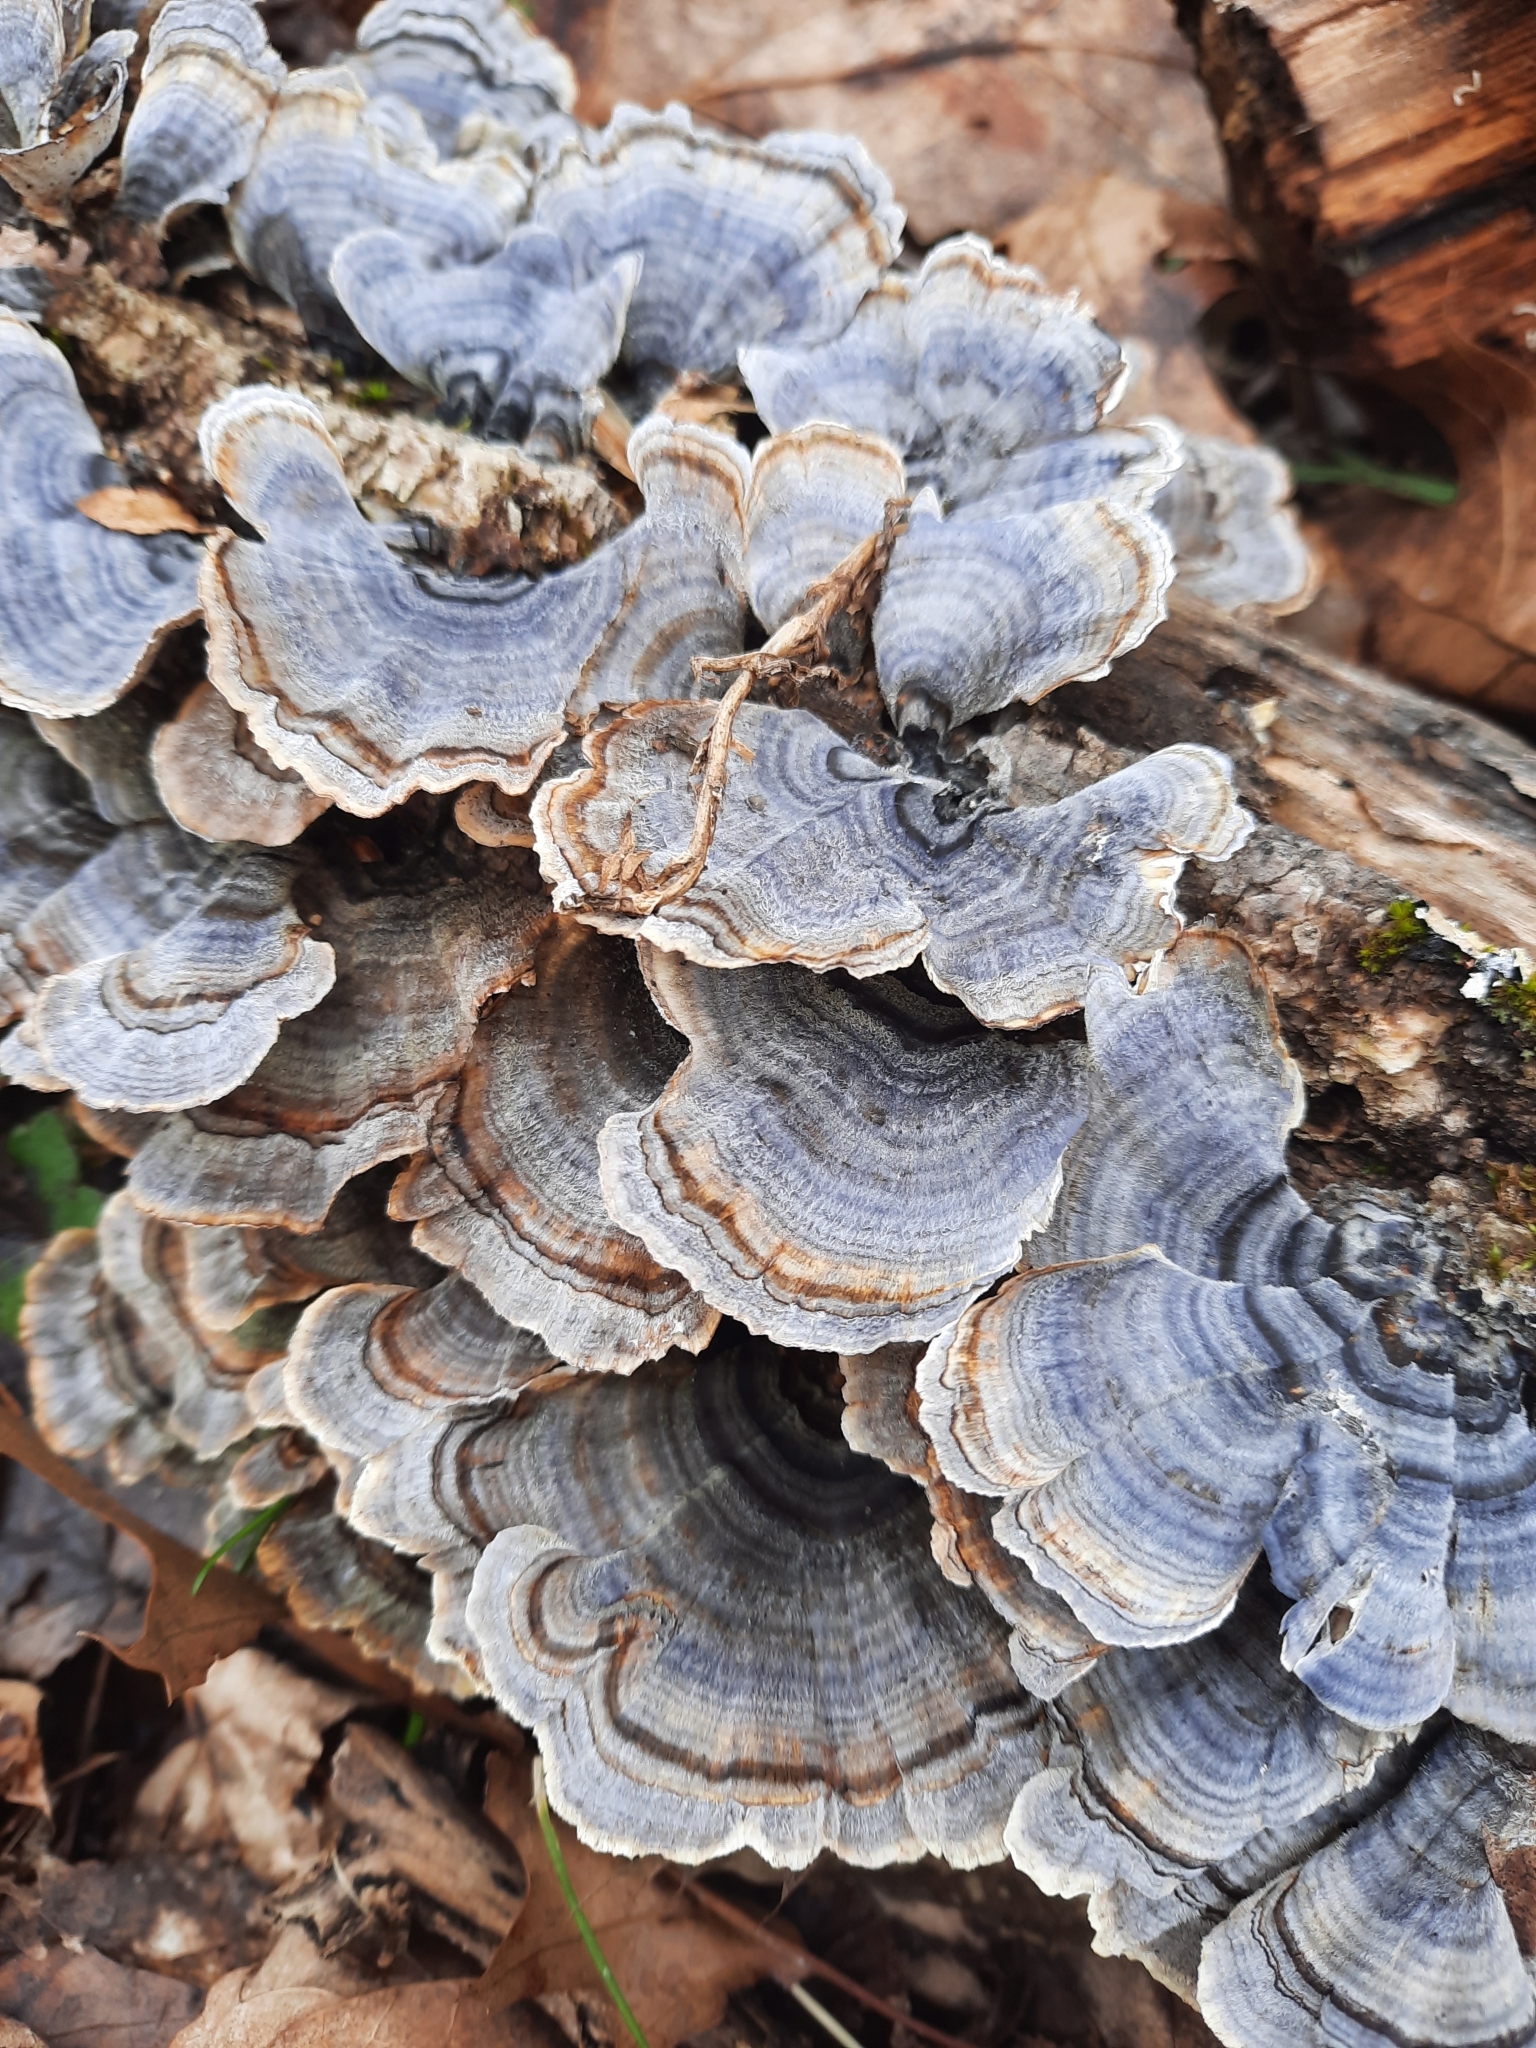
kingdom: Fungi
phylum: Basidiomycota
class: Agaricomycetes
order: Polyporales
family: Polyporaceae
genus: Trametes
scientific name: Trametes versicolor
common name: Turkeytail
